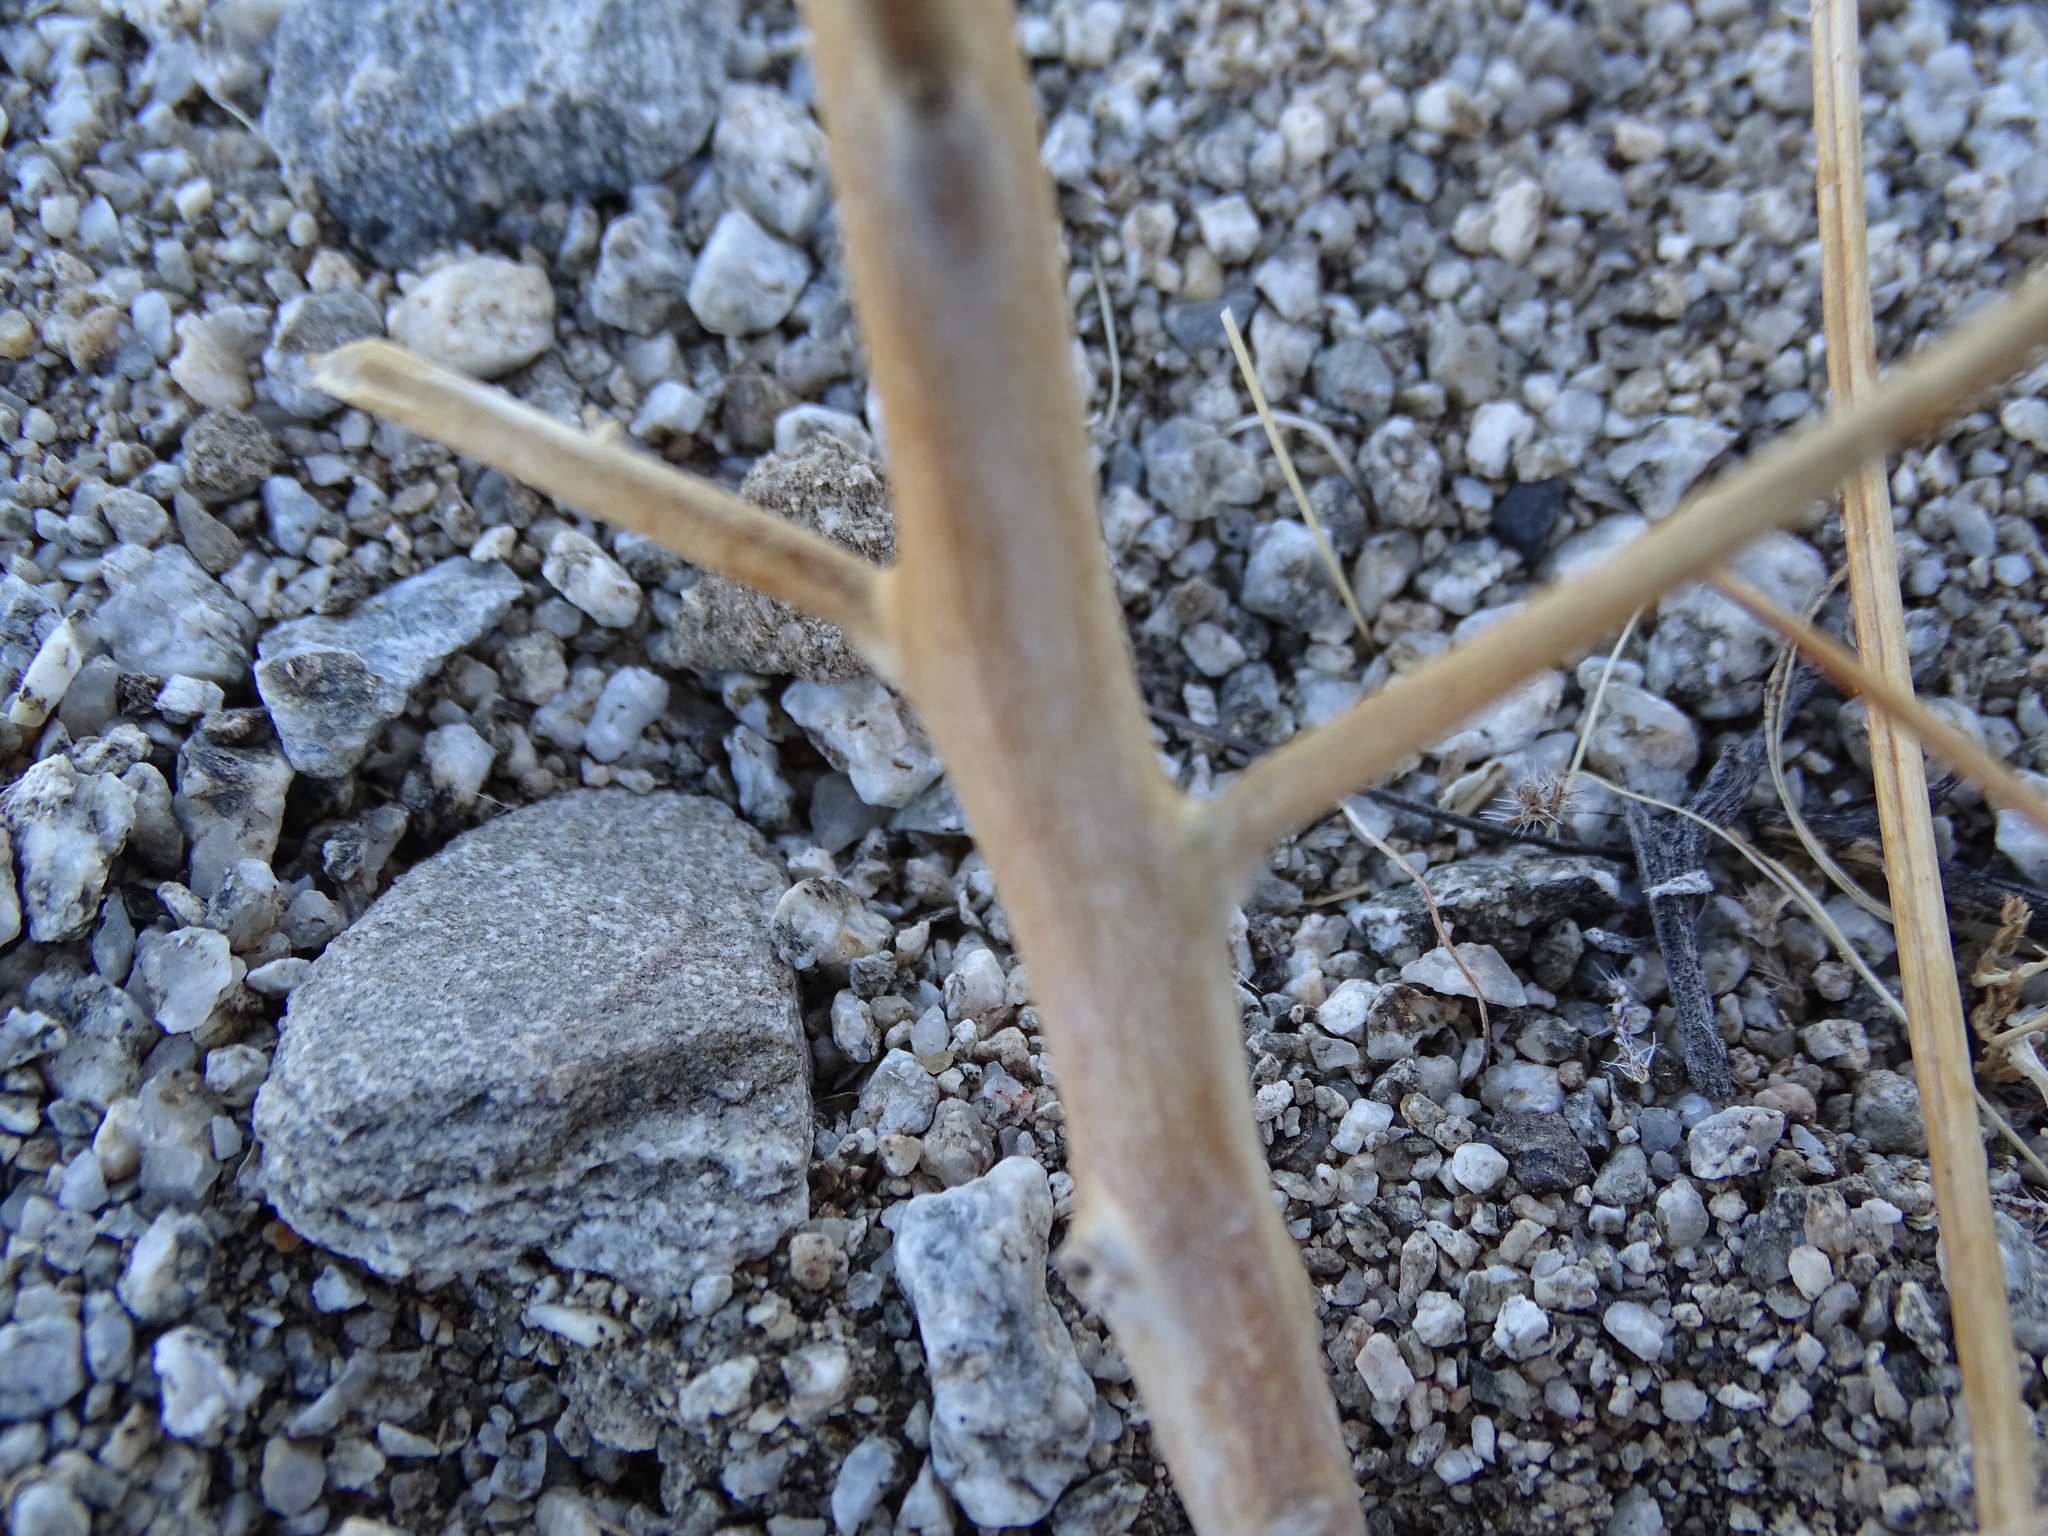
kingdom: Plantae
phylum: Tracheophyta
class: Magnoliopsida
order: Myrtales
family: Onagraceae
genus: Eulobus
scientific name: Eulobus californicus
